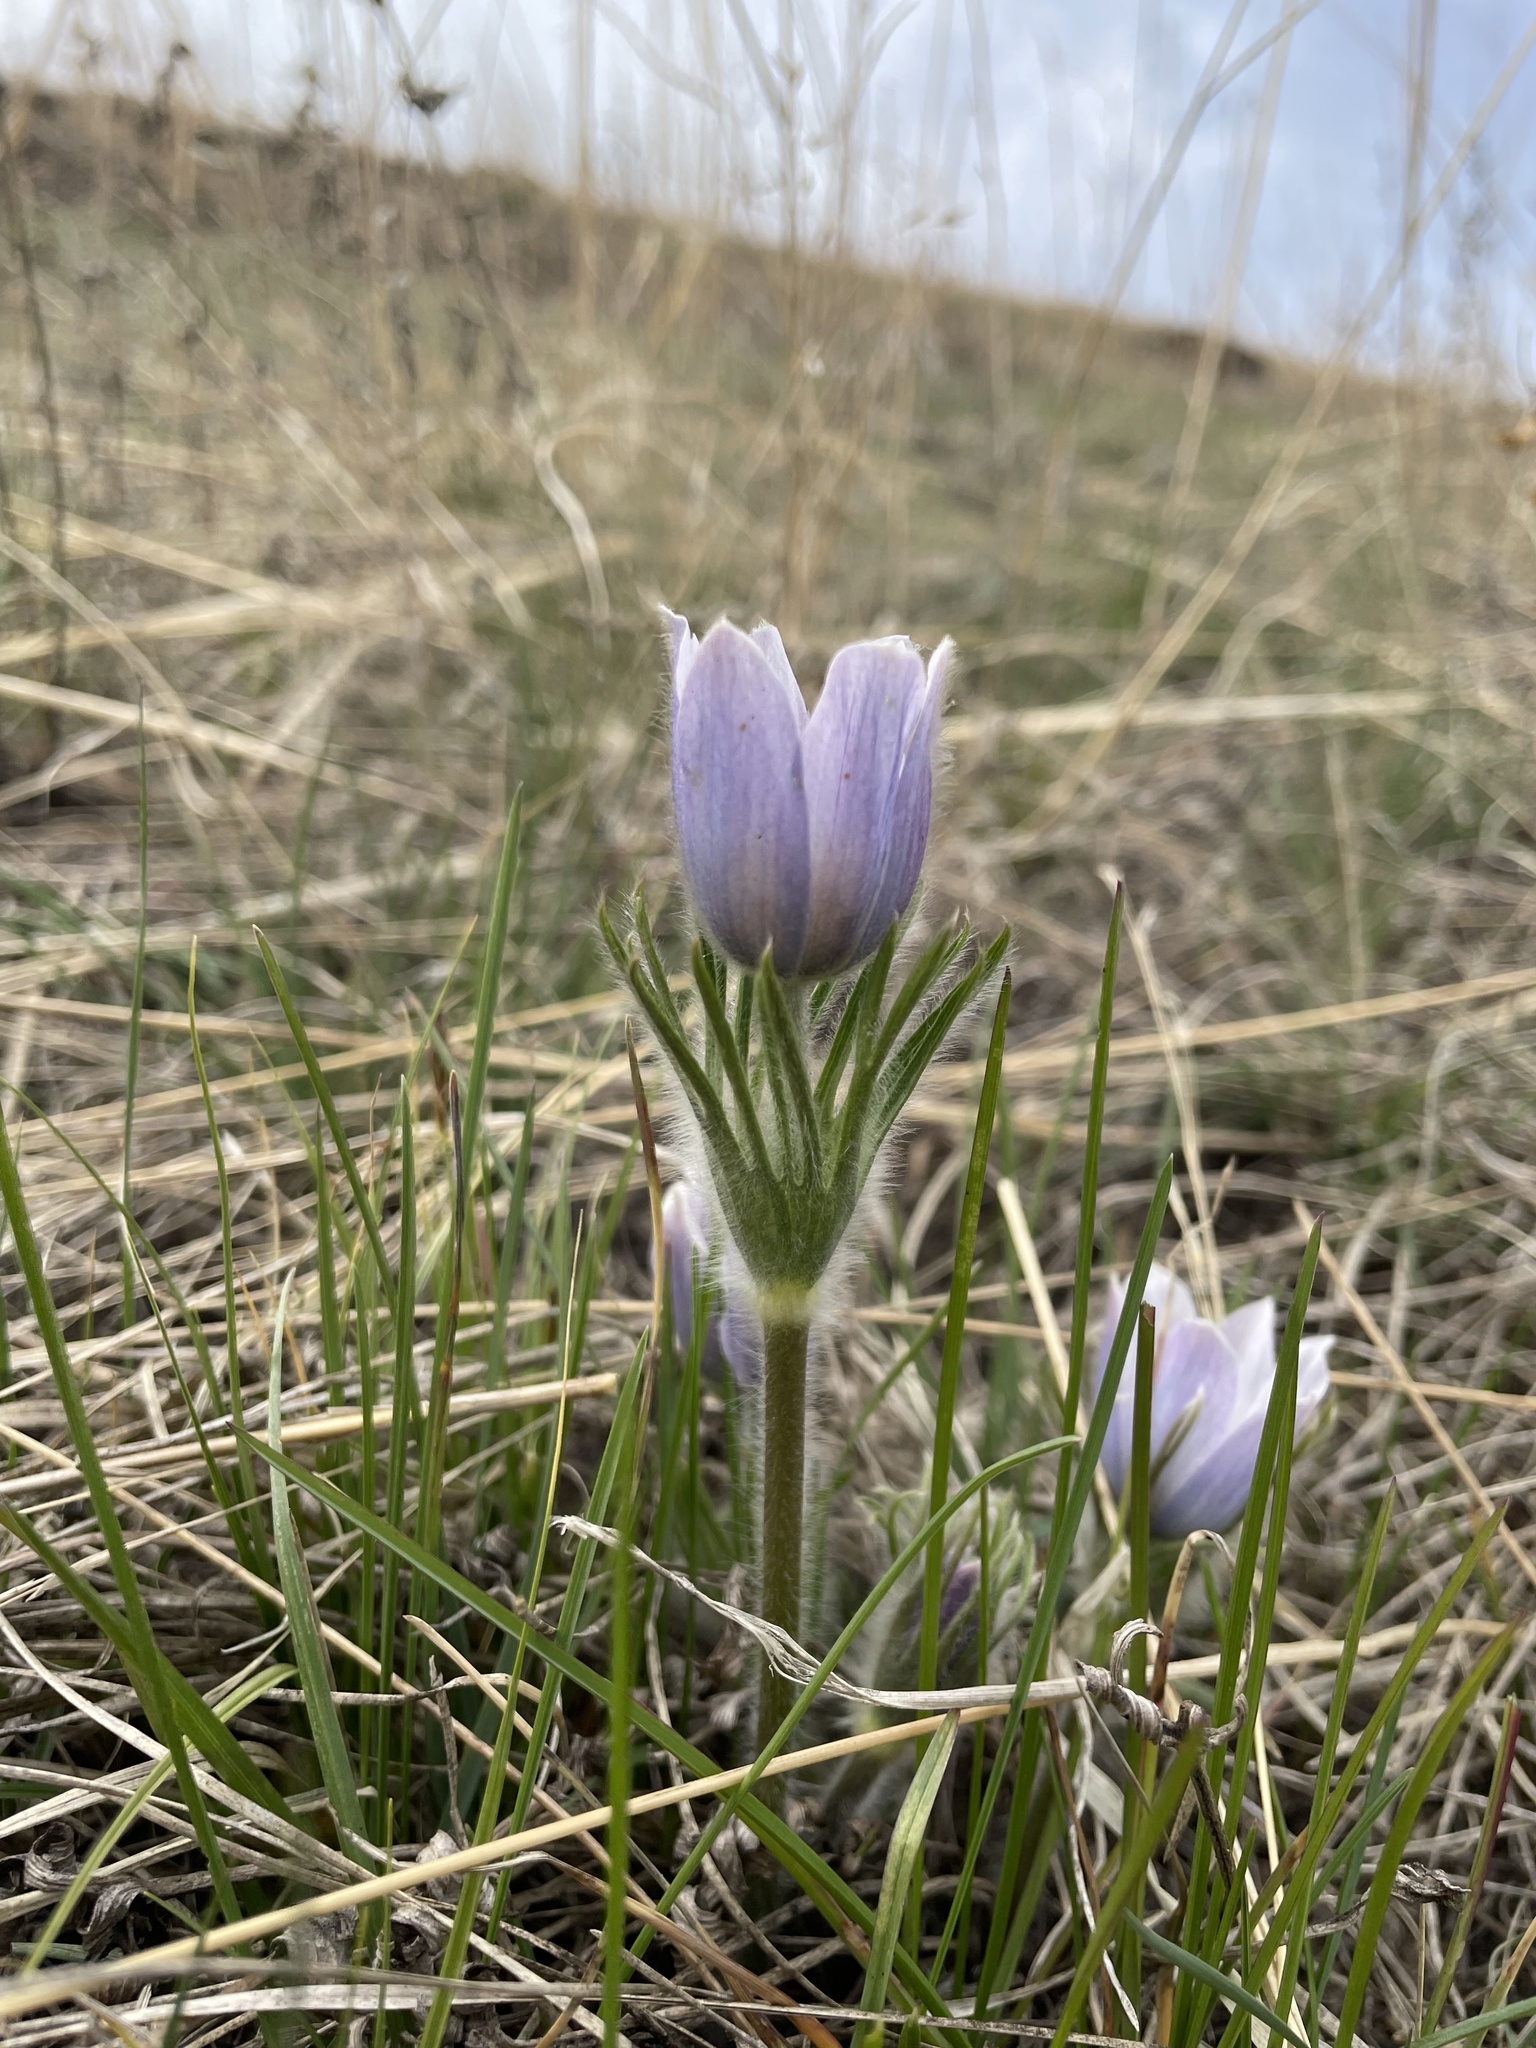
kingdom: Plantae
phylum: Tracheophyta
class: Magnoliopsida
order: Ranunculales
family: Ranunculaceae
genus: Pulsatilla
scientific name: Pulsatilla nuttalliana
